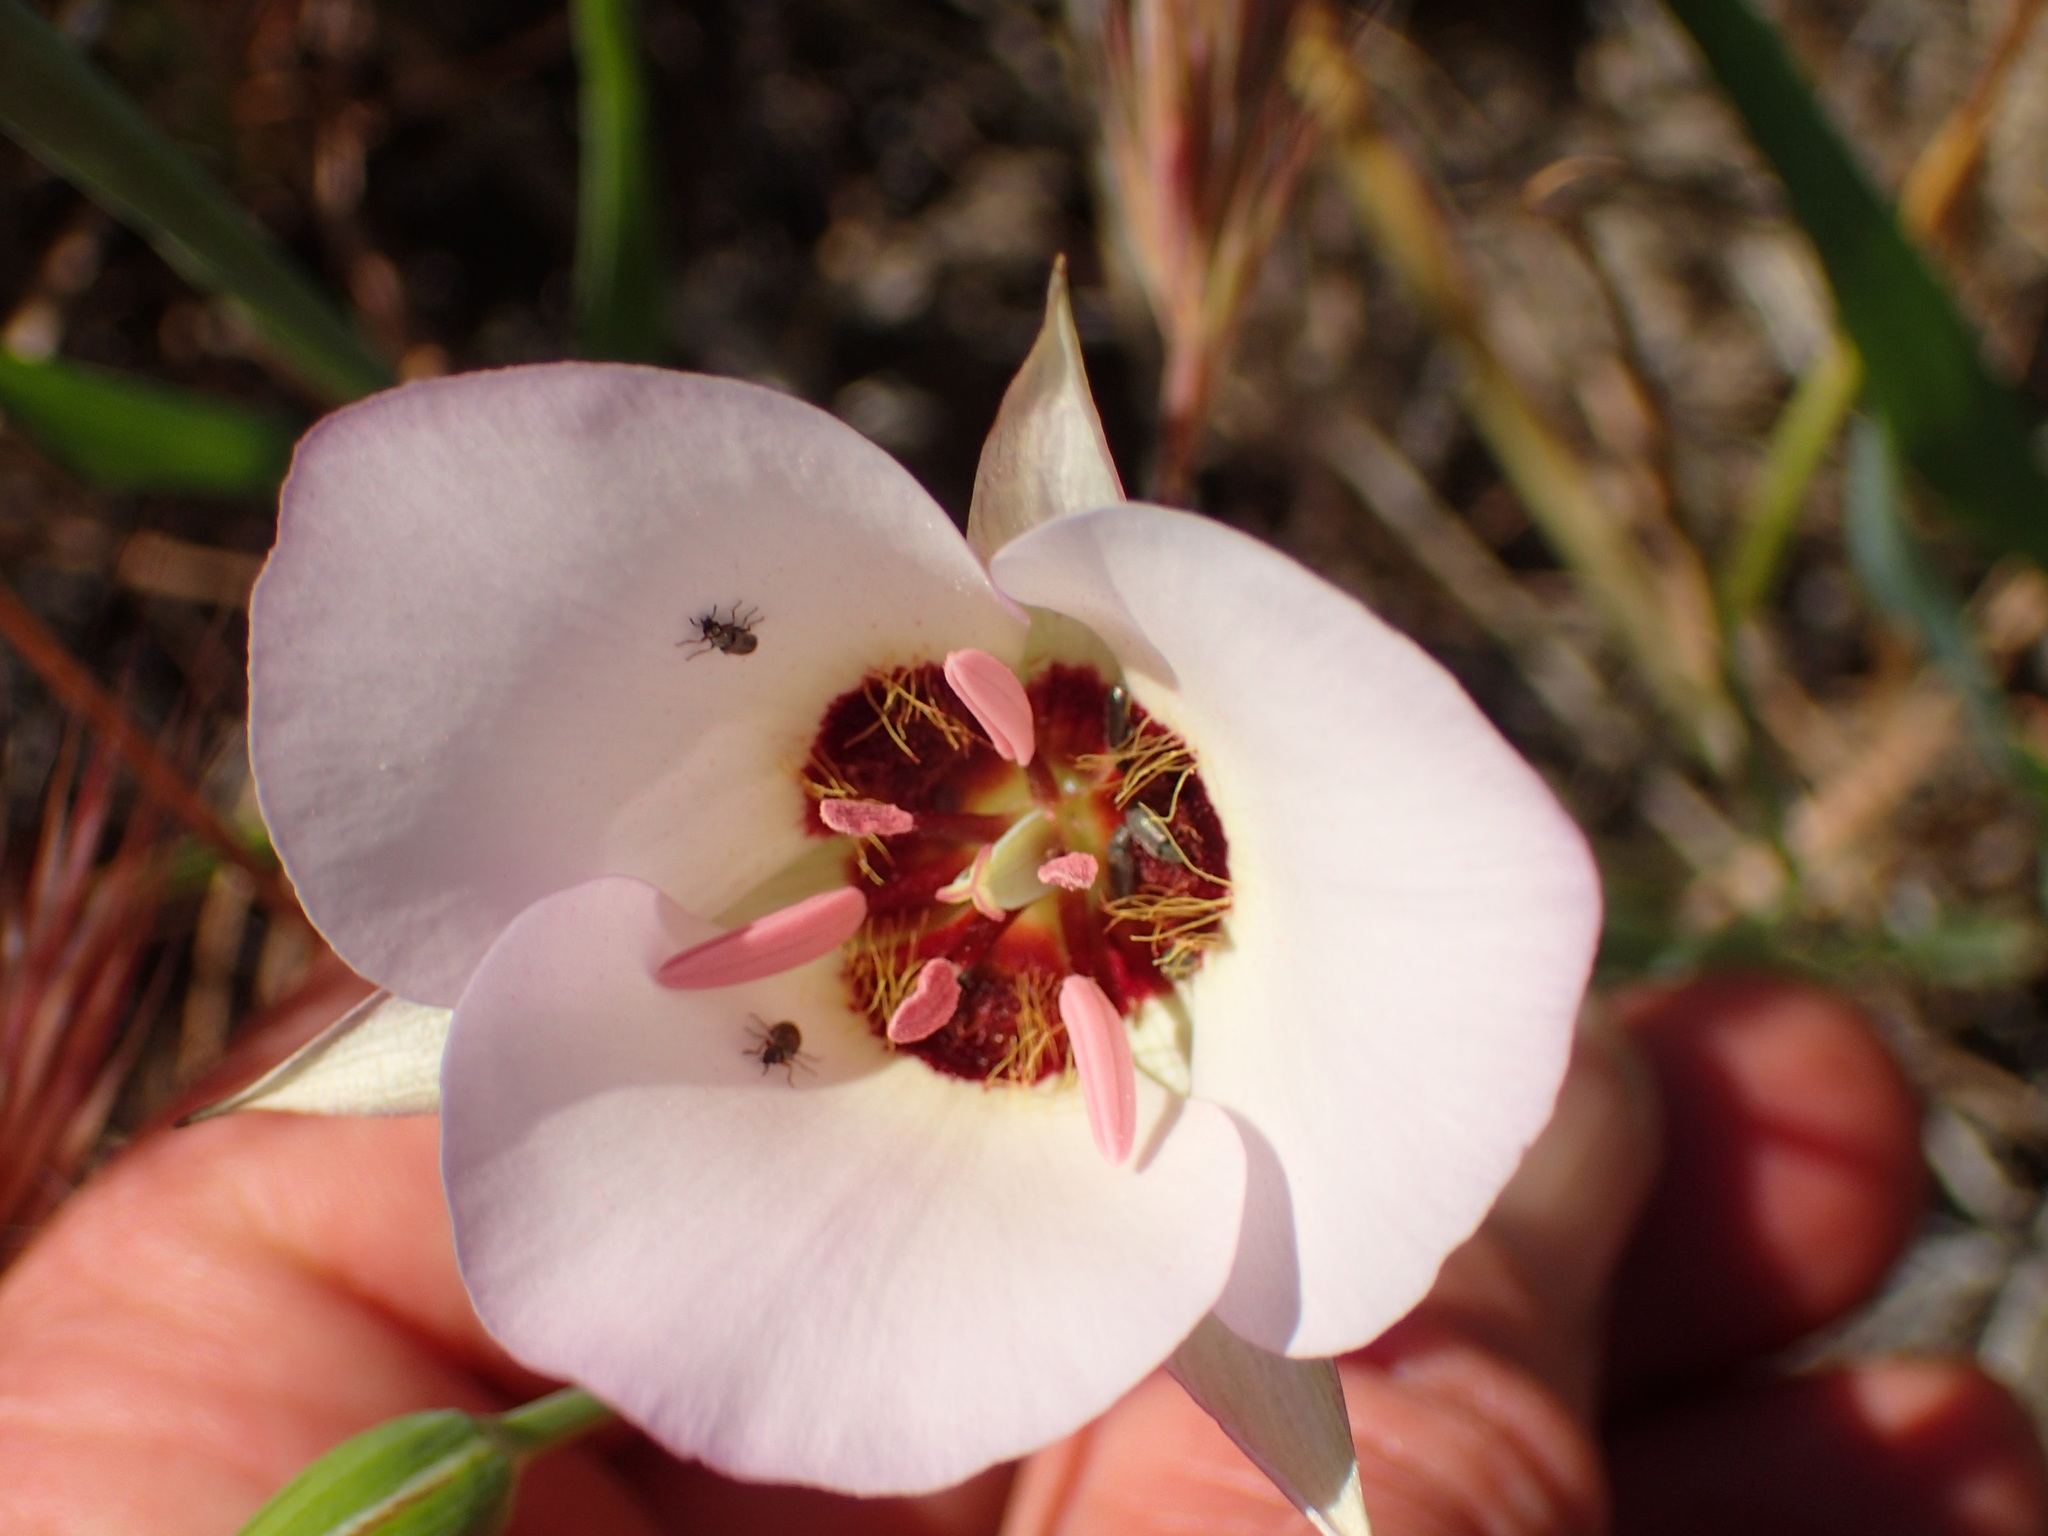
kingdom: Plantae
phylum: Tracheophyta
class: Liliopsida
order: Liliales
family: Liliaceae
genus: Calochortus
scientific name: Calochortus catalinae
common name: Catalina mariposa-lily
